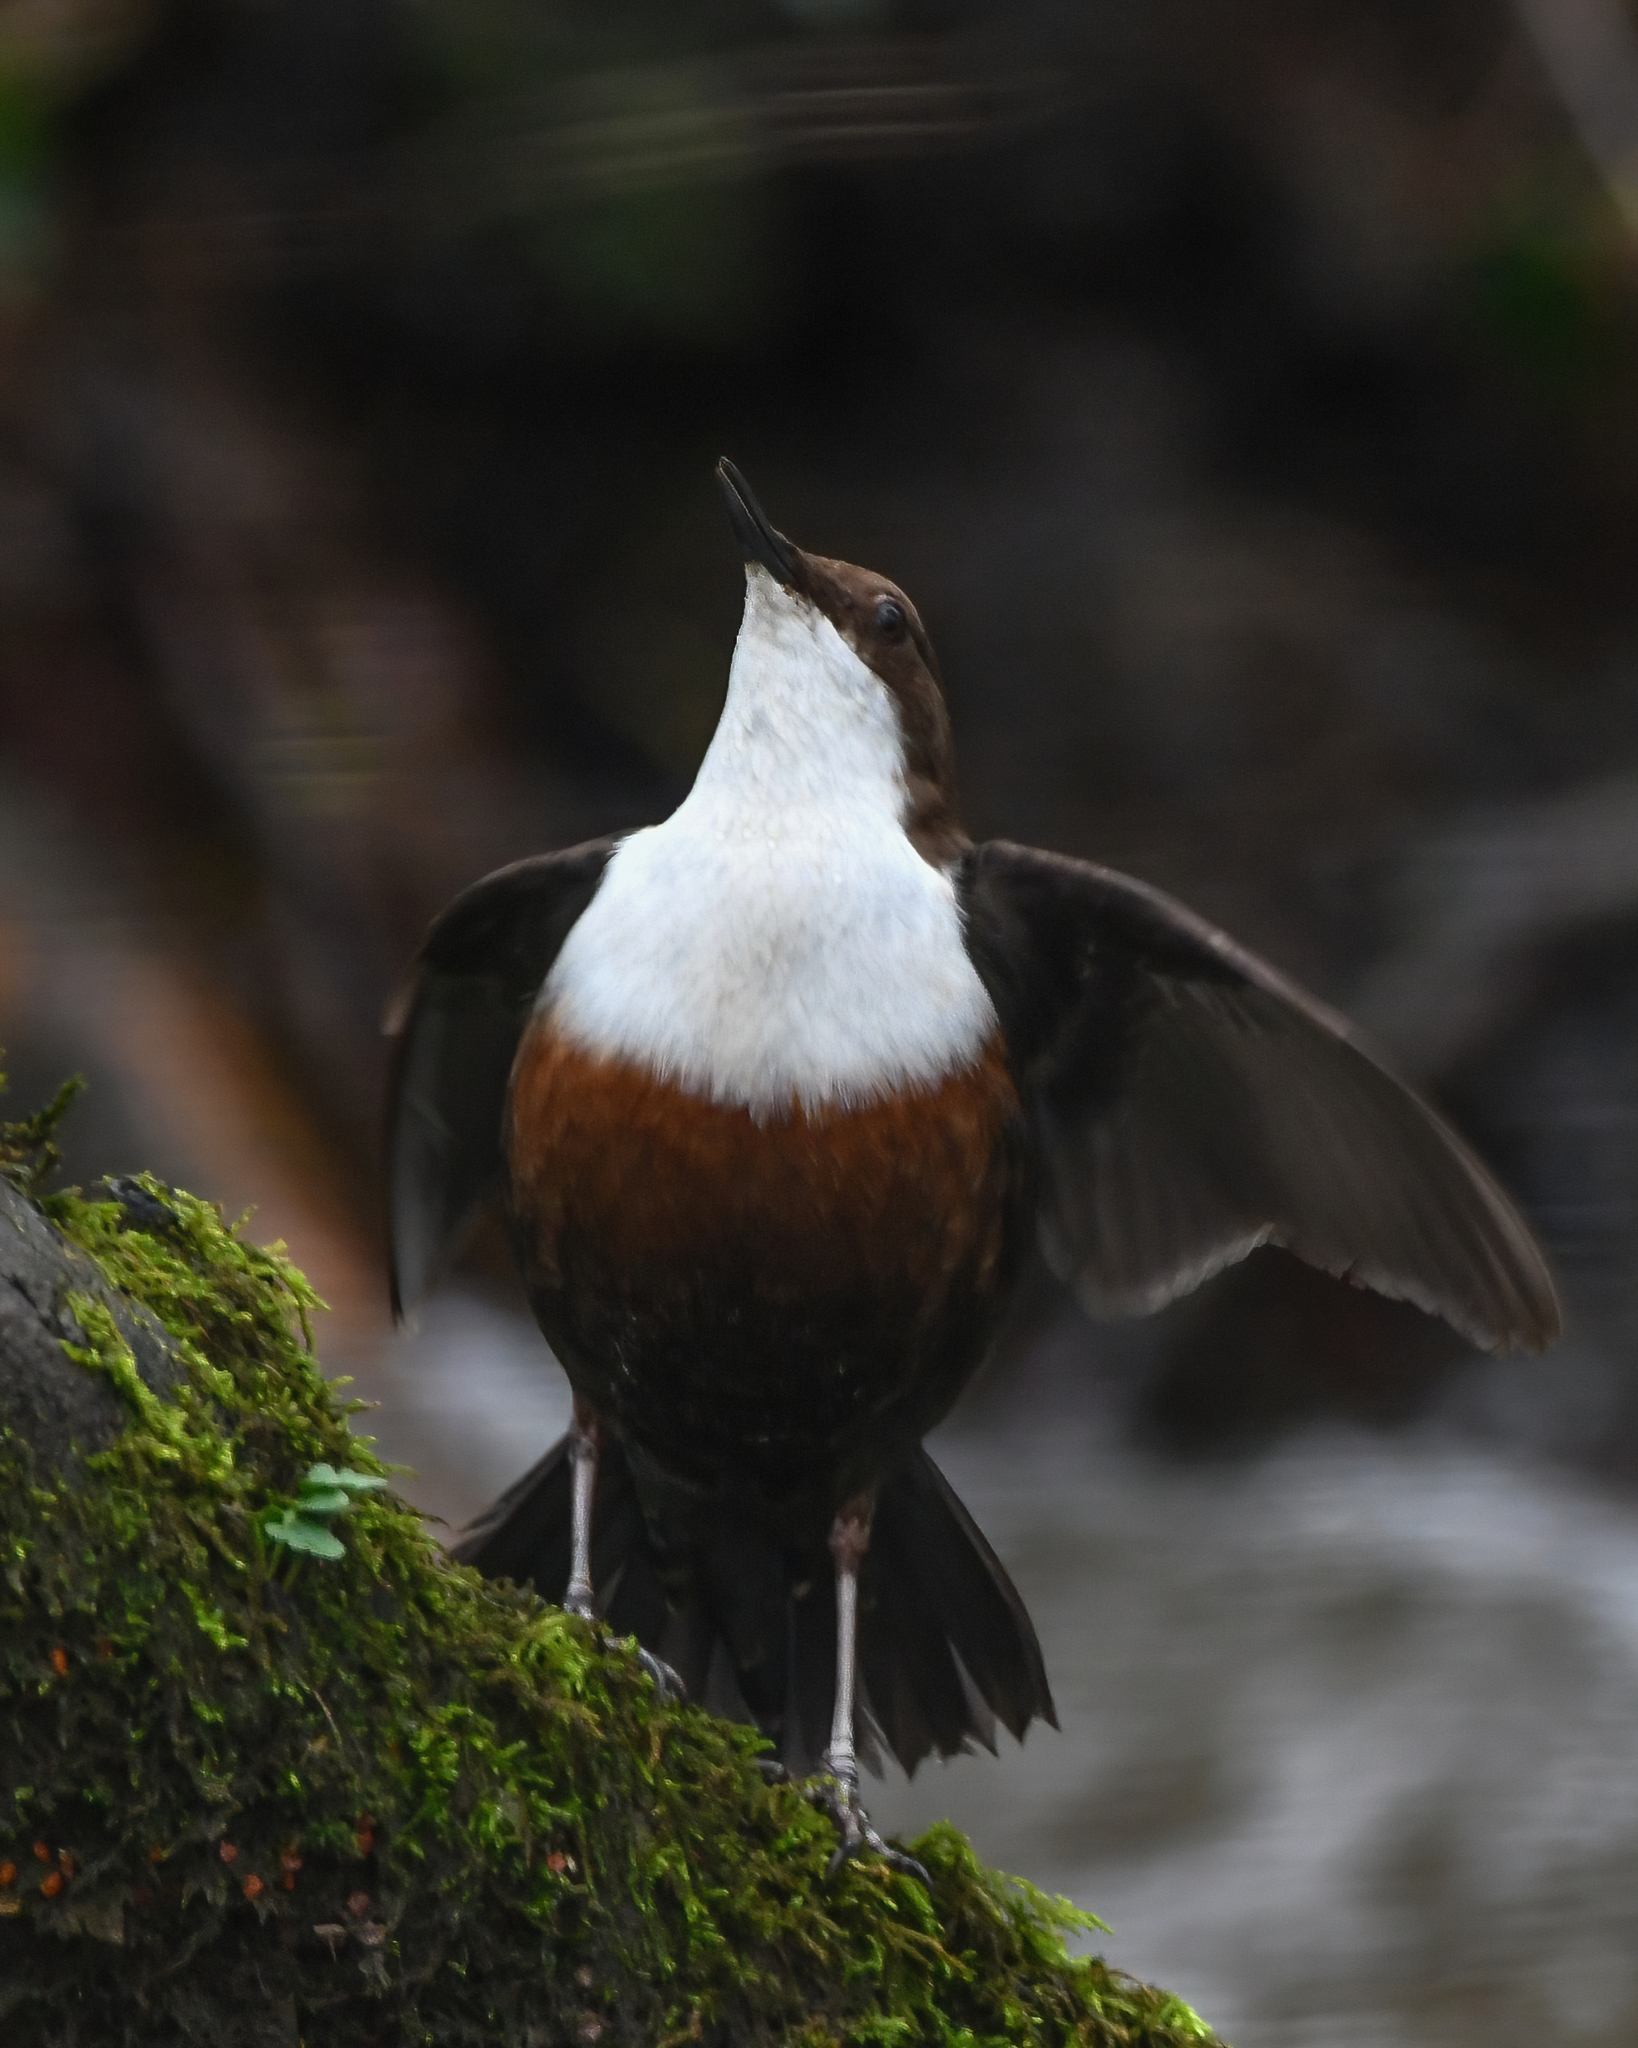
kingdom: Animalia
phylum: Chordata
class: Aves
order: Passeriformes
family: Cinclidae
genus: Cinclus
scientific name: Cinclus cinclus
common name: White-throated dipper
